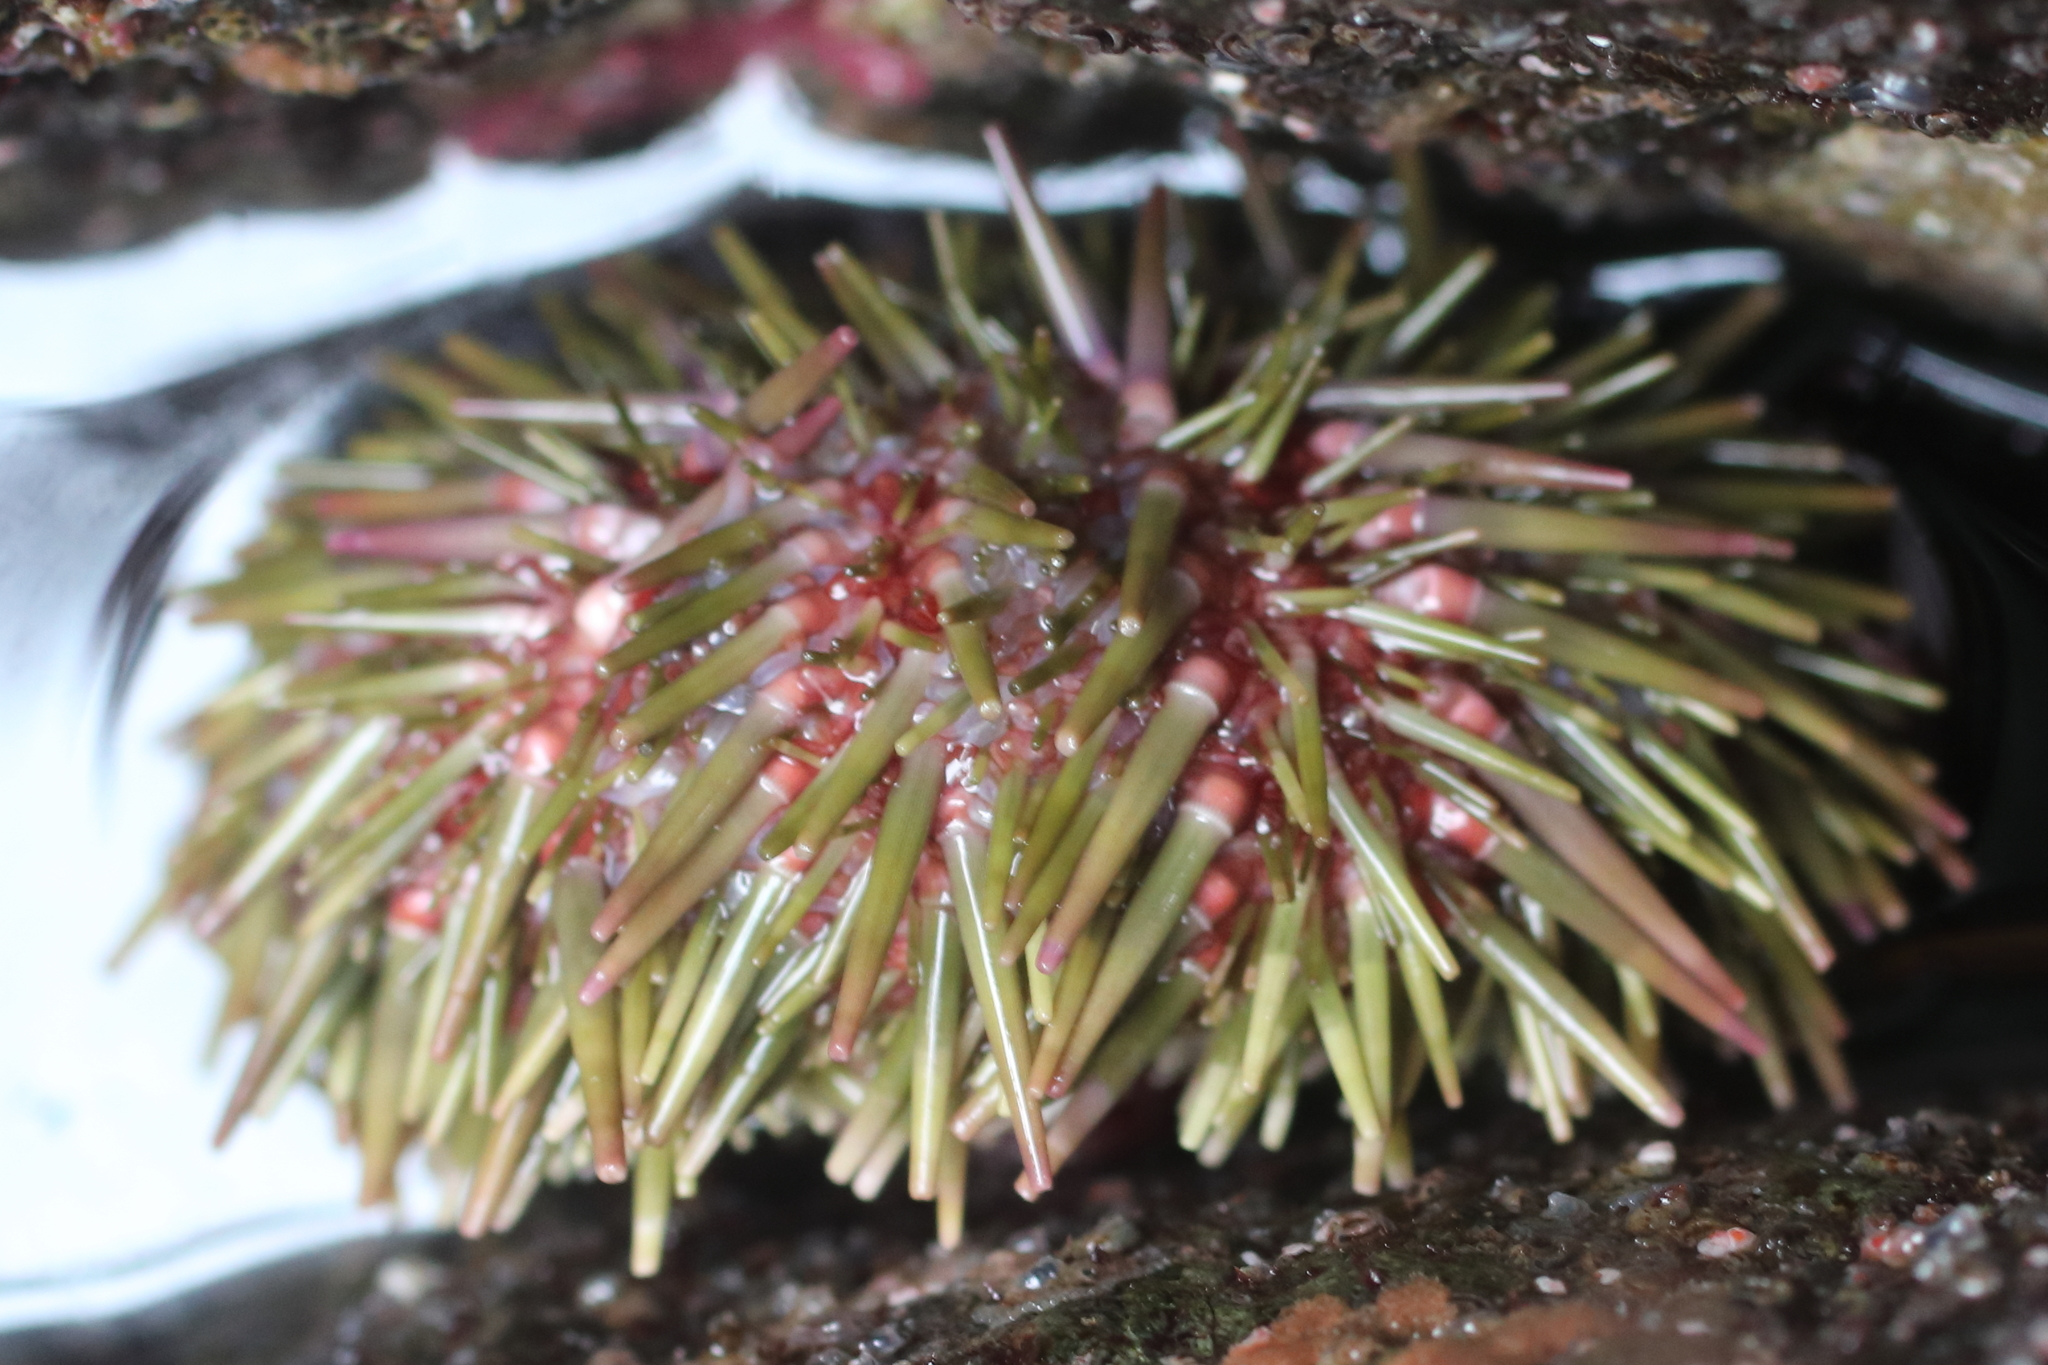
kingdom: Animalia
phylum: Echinodermata
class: Echinoidea
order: Camarodonta
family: Strongylocentrotidae
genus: Strongylocentrotus
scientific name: Strongylocentrotus droebachiensis
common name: Northern sea urchin
